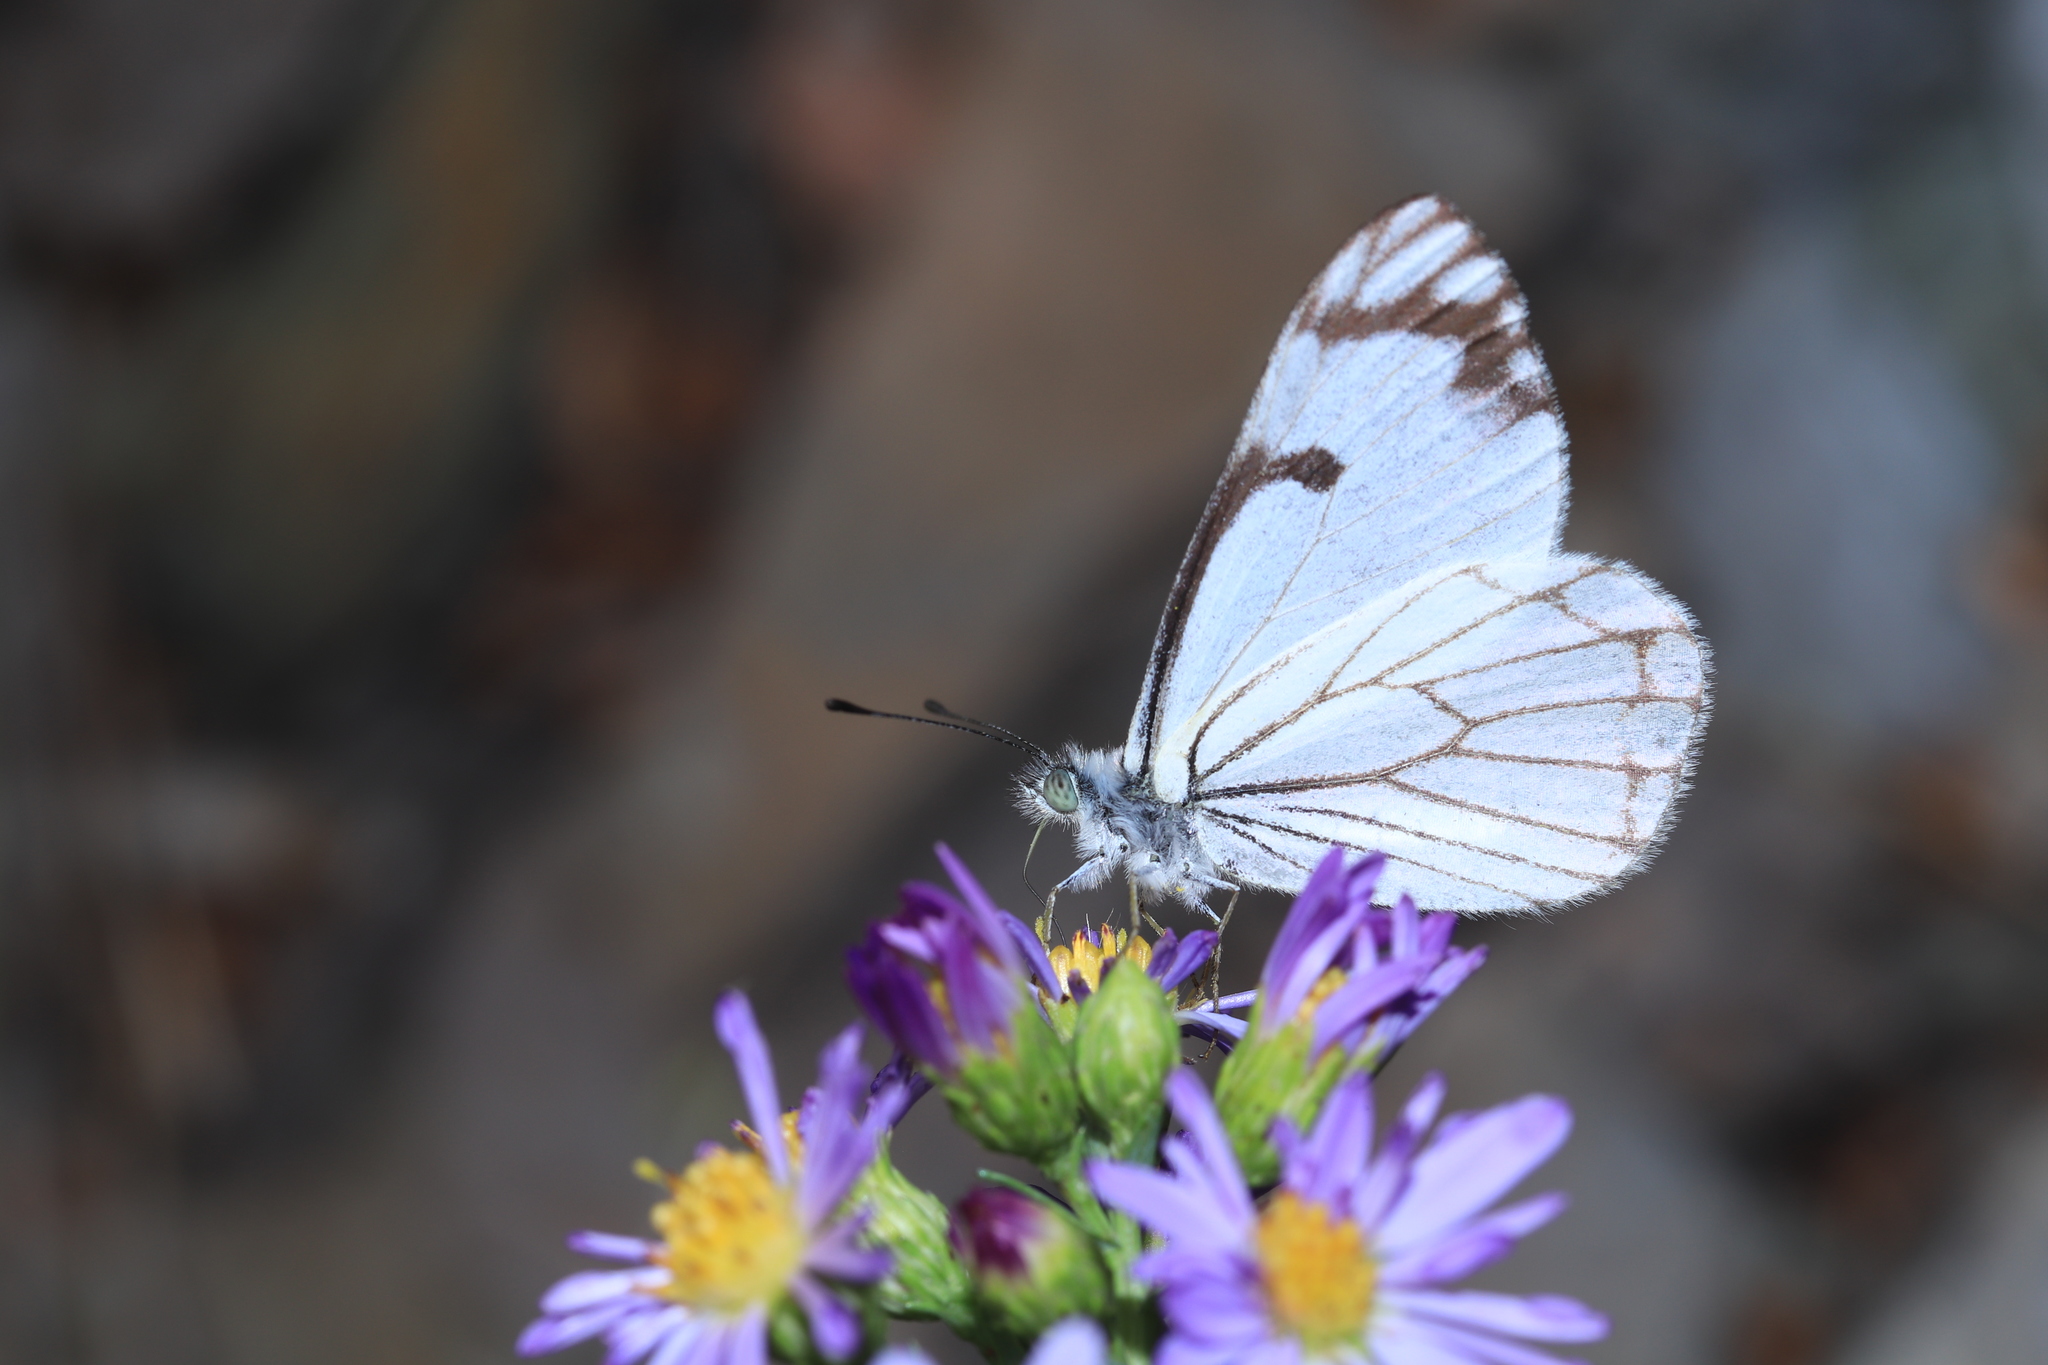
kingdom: Animalia
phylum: Arthropoda
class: Insecta
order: Lepidoptera
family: Pieridae
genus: Neophasia
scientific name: Neophasia menapia
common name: Pine white
